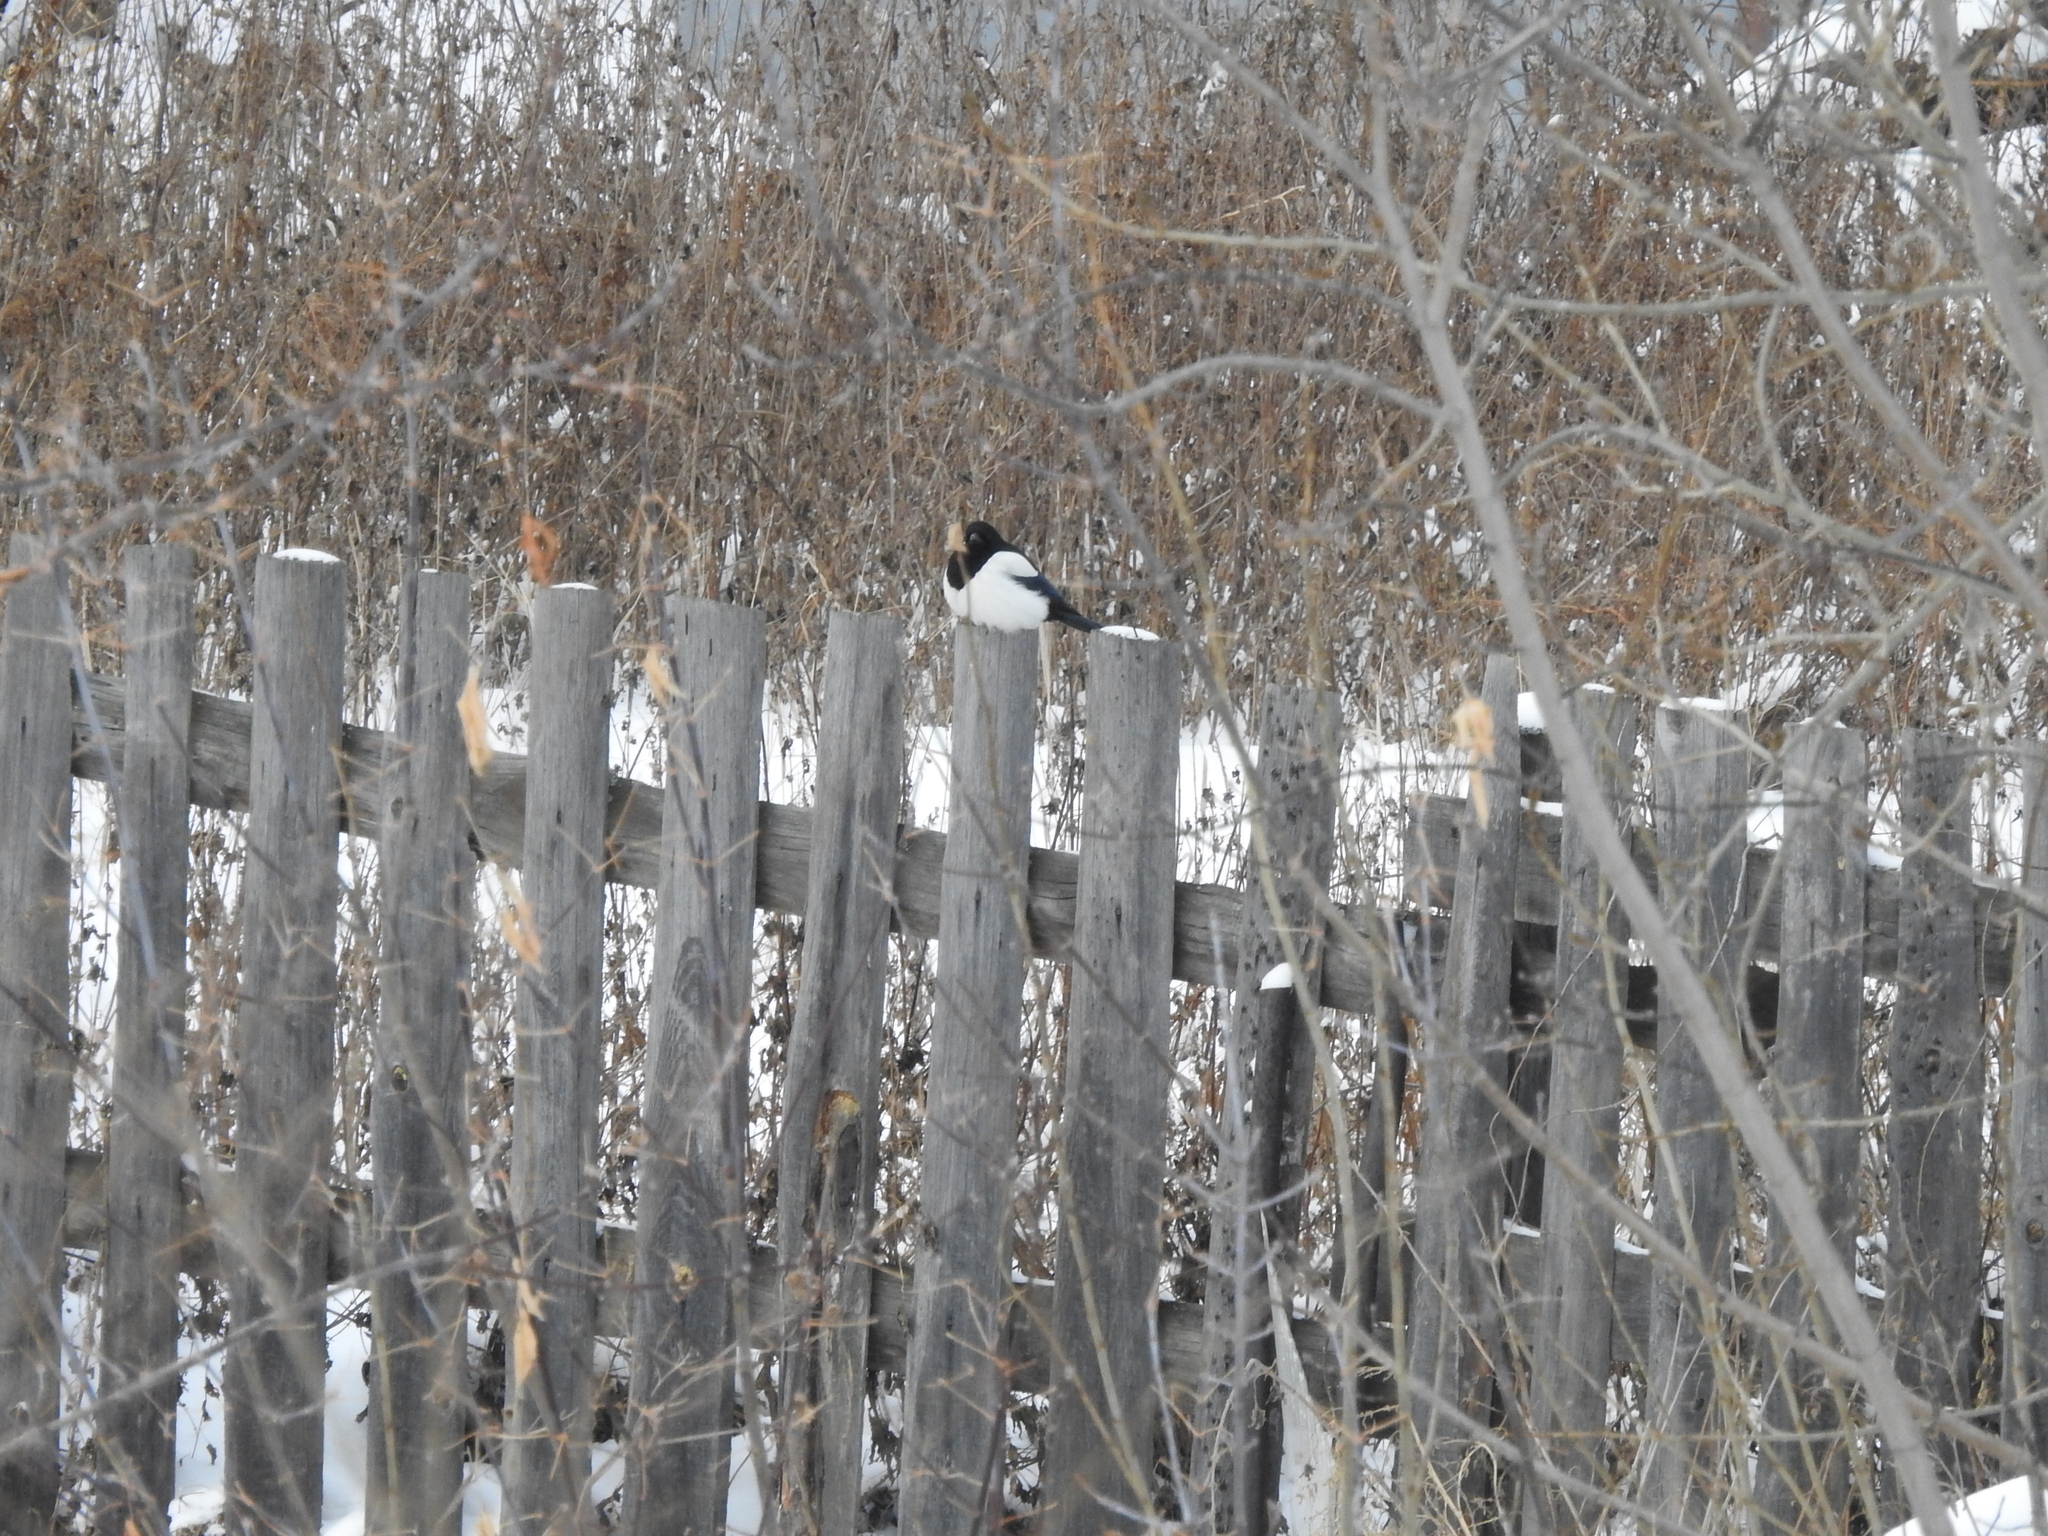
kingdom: Animalia
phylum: Chordata
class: Aves
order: Passeriformes
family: Corvidae
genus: Pica
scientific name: Pica pica
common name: Eurasian magpie
